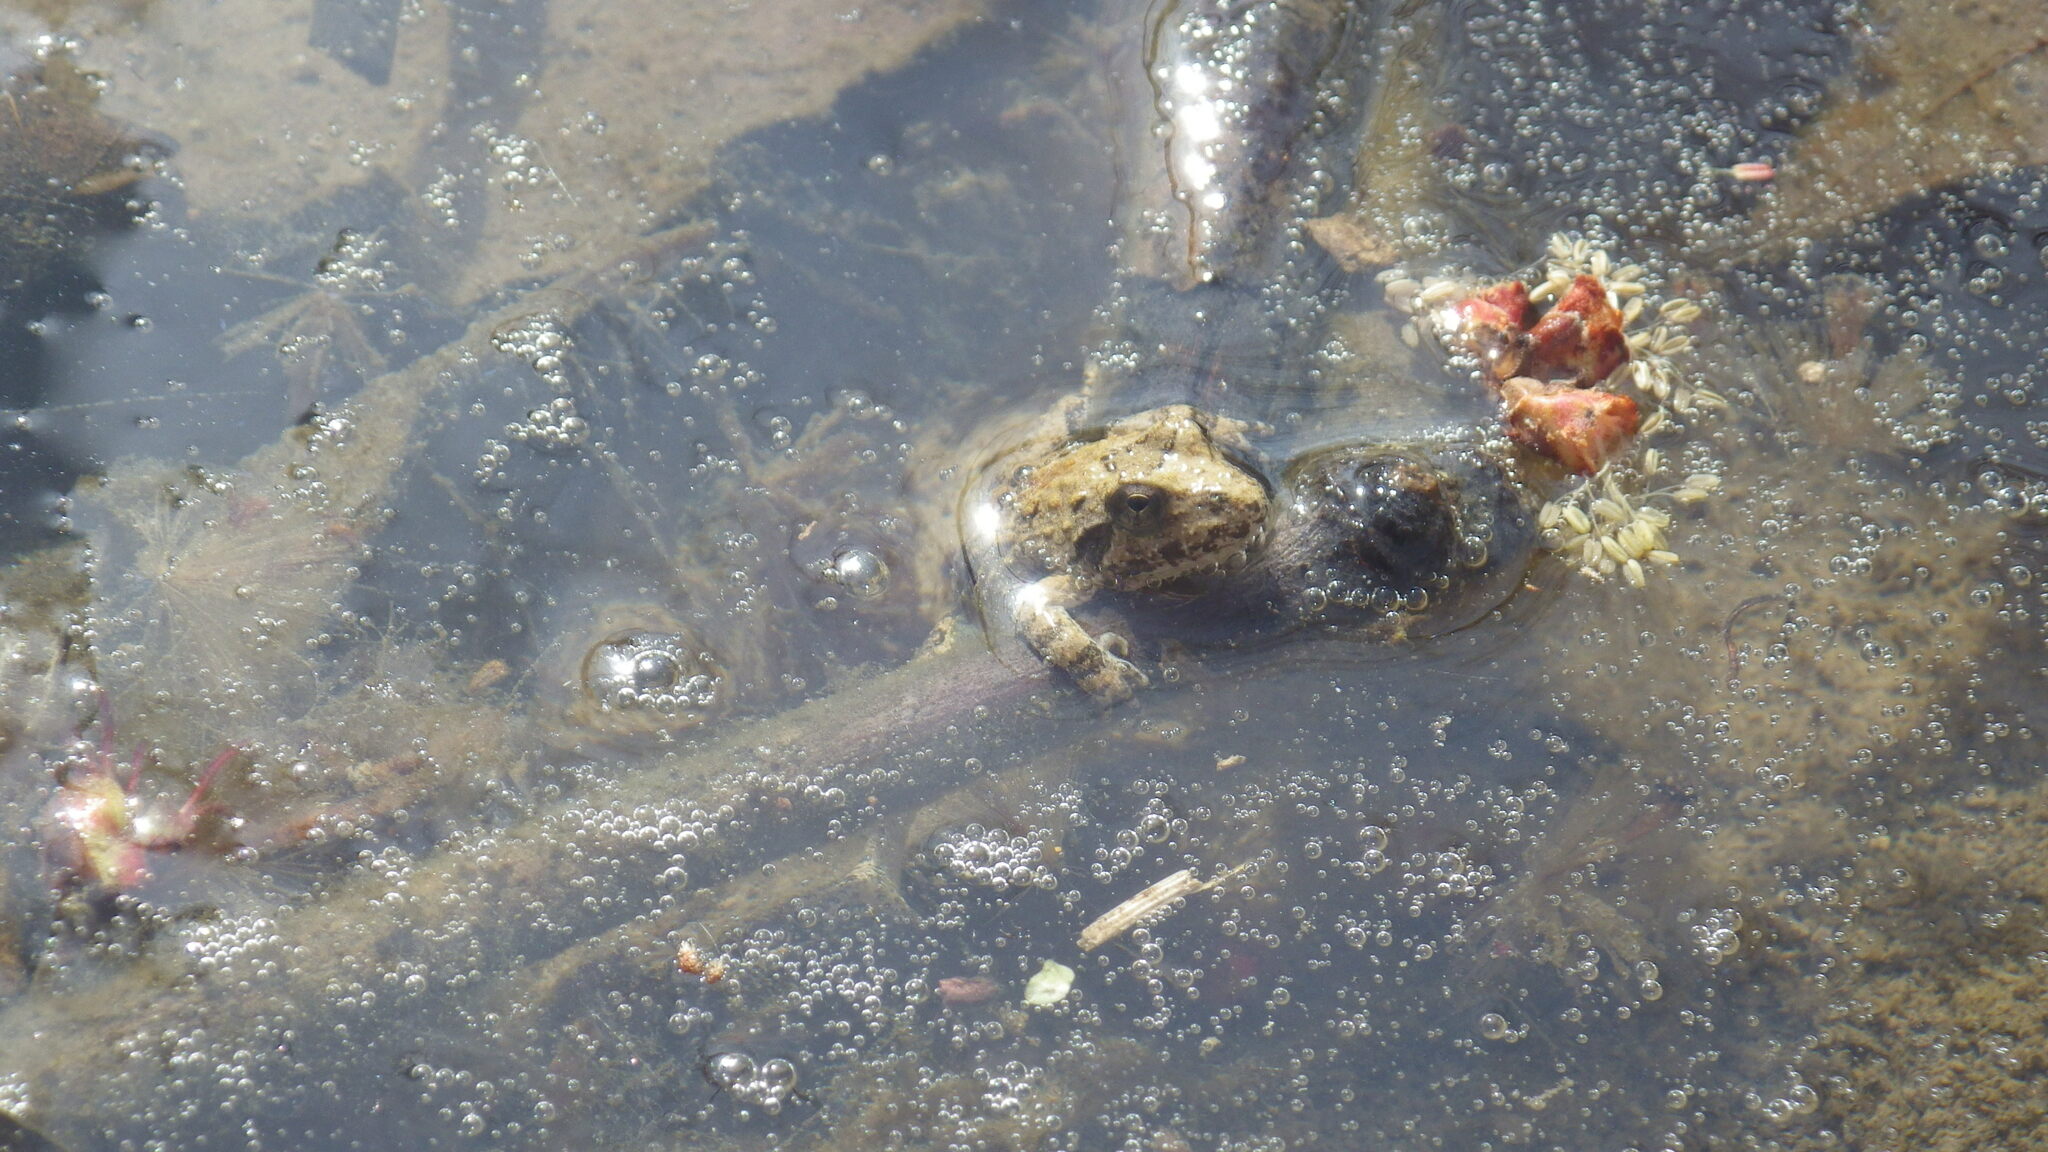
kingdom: Animalia
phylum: Chordata
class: Amphibia
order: Anura
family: Hylidae
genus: Acris
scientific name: Acris blanchardi
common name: Blanchard's cricket frog
